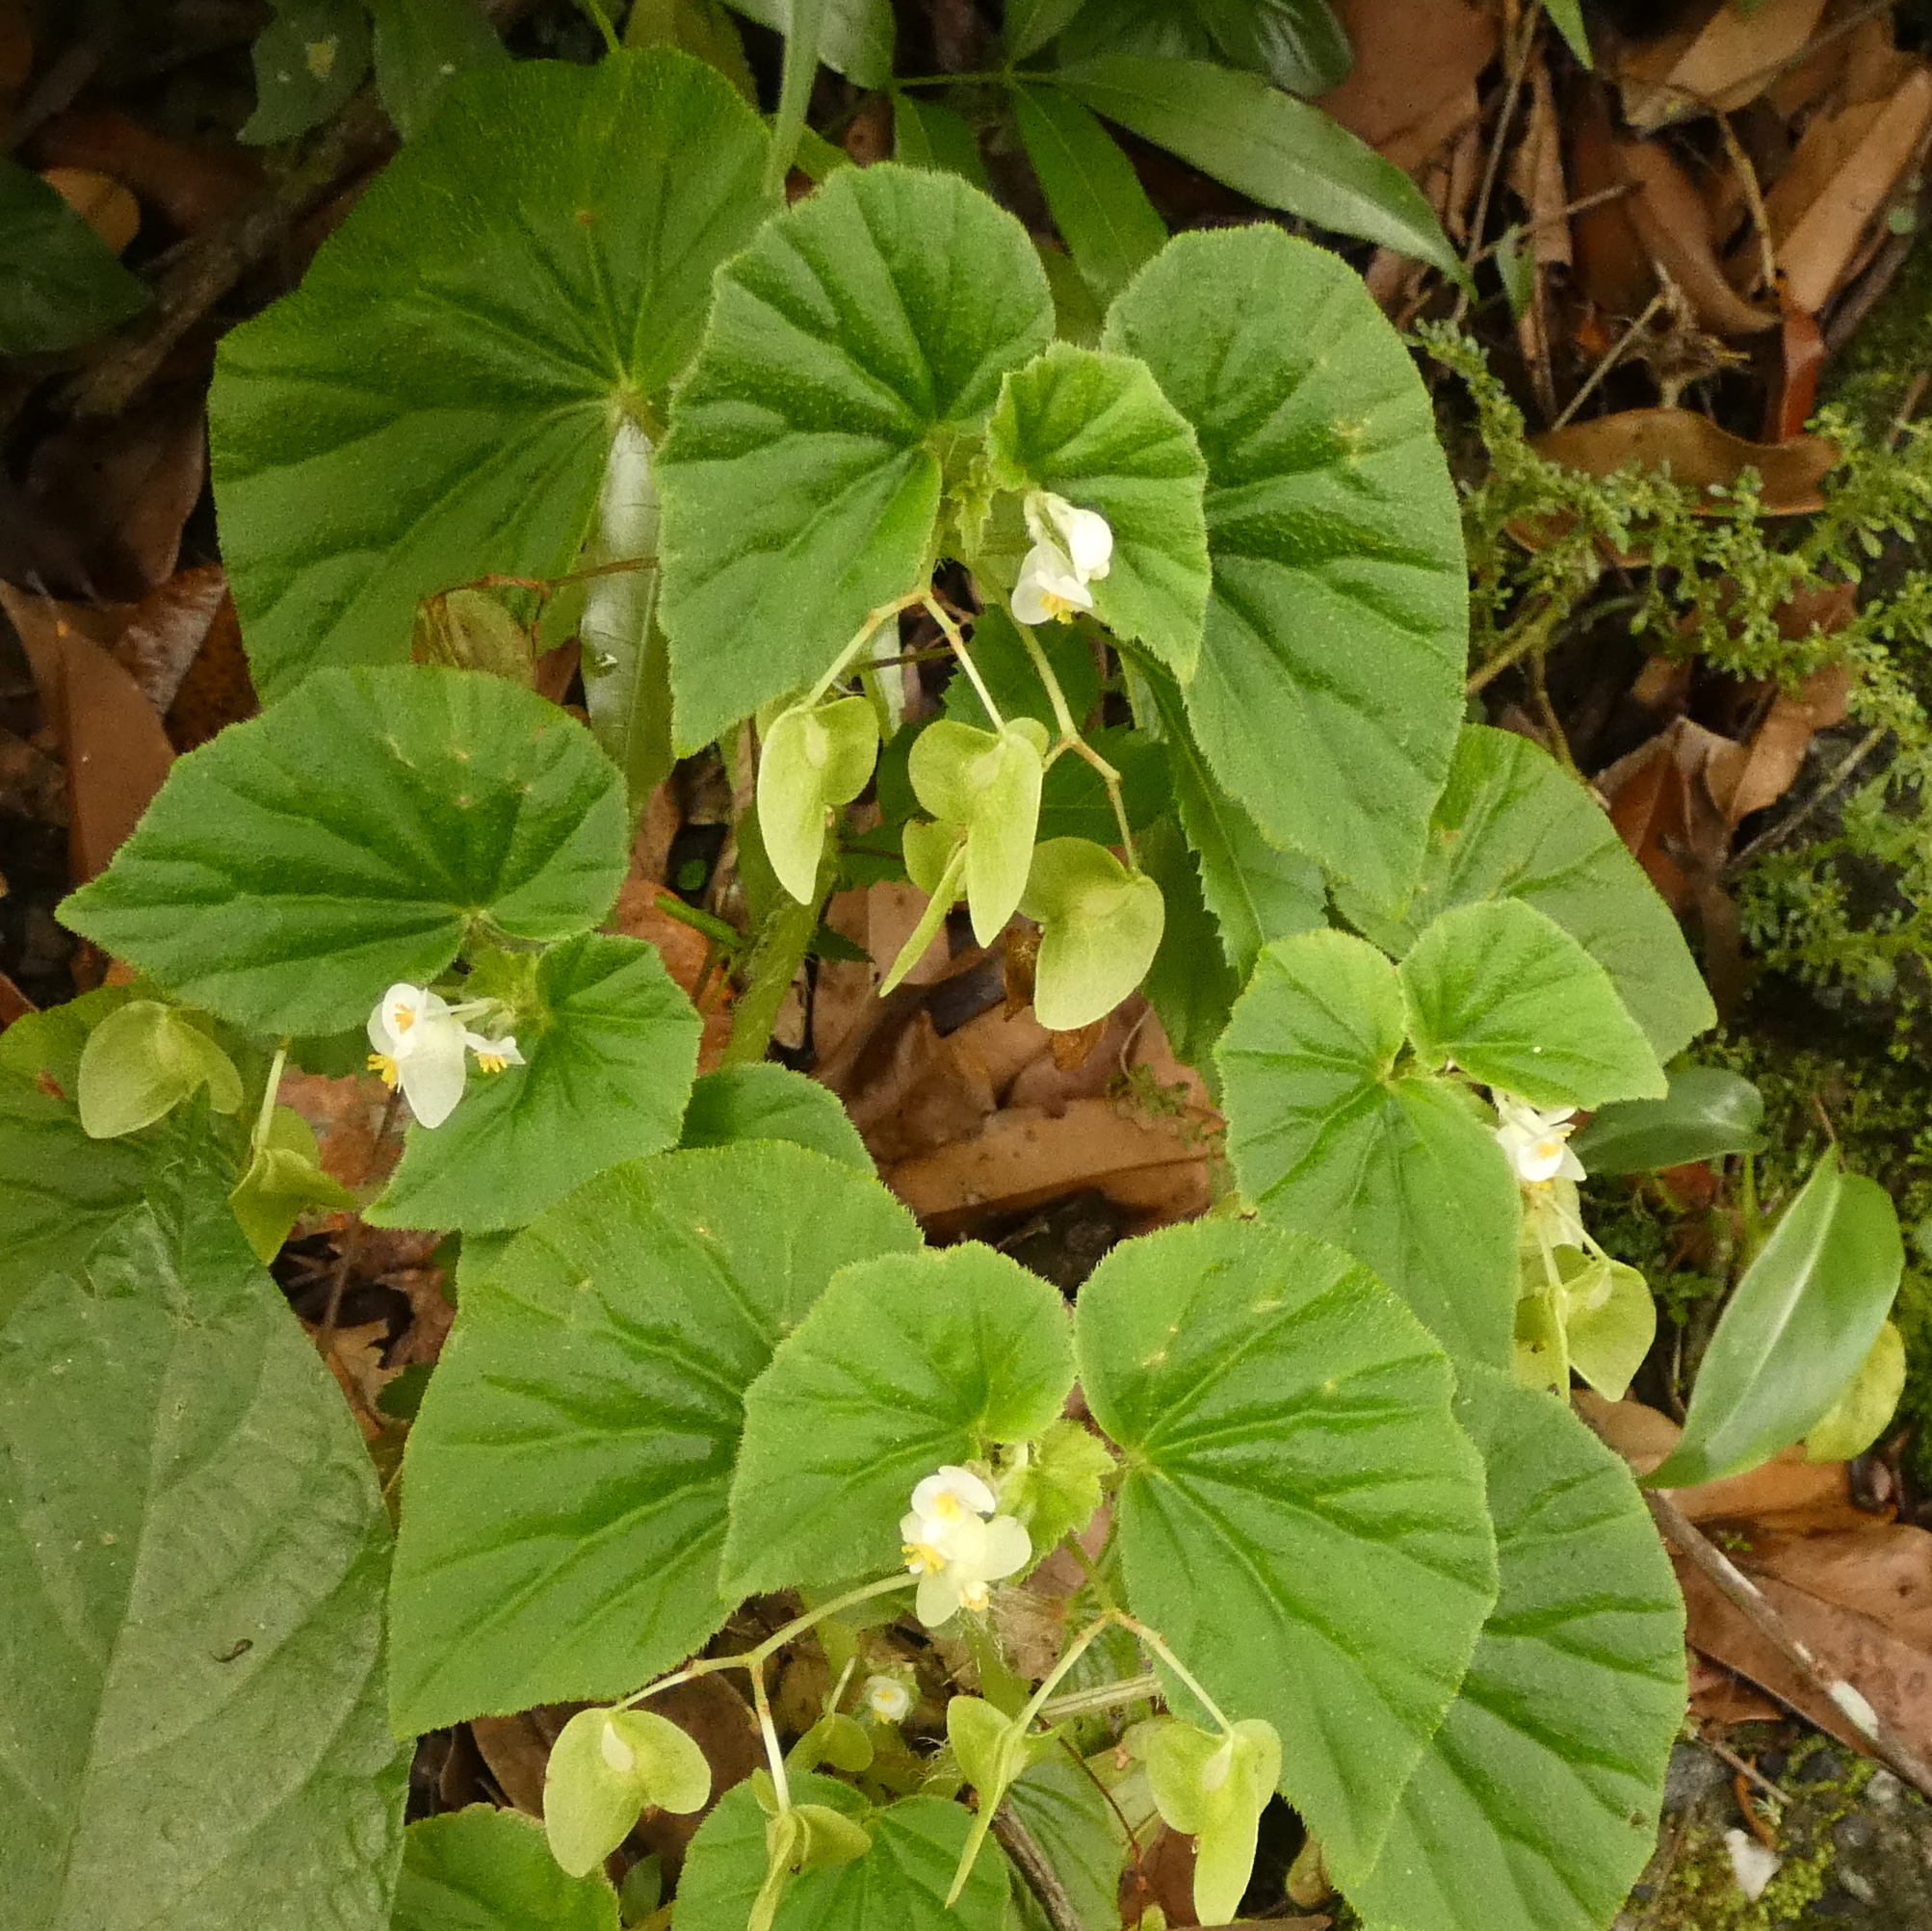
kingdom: Plantae
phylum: Tracheophyta
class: Magnoliopsida
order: Cucurbitales
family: Begoniaceae
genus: Begonia
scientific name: Begonia hirtella
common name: Brazilian begonia
